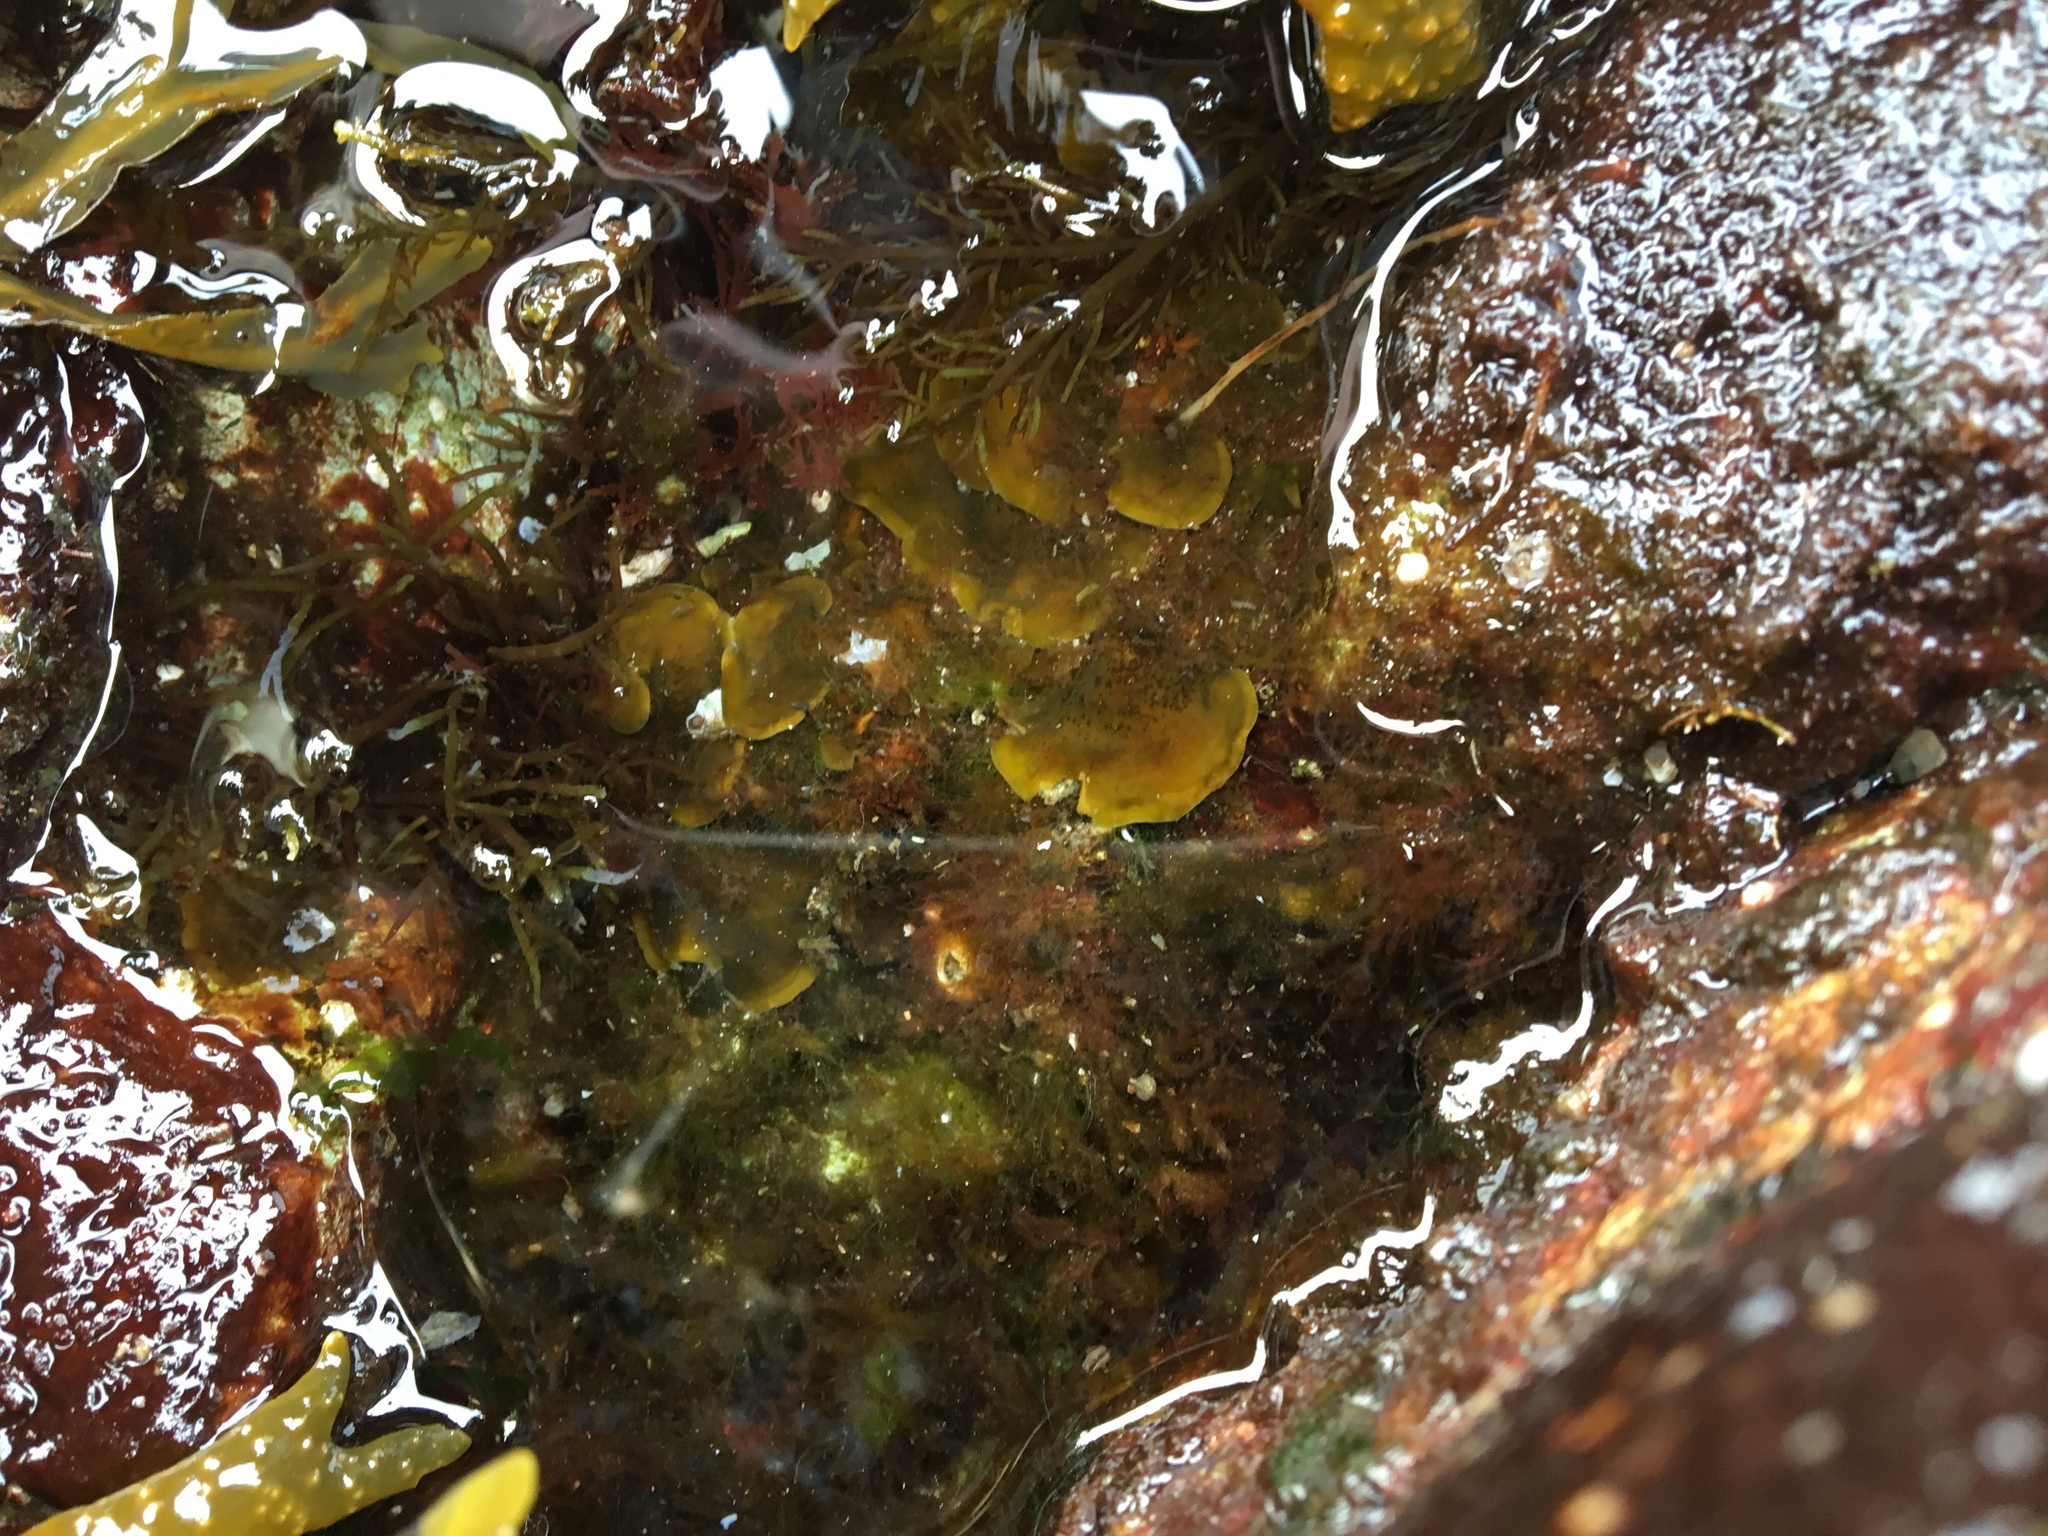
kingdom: Chromista
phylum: Ochrophyta
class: Phaeophyceae
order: Ralfsiales
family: Ralfsiaceae
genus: Ralfsia
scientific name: Ralfsia fungiformis
